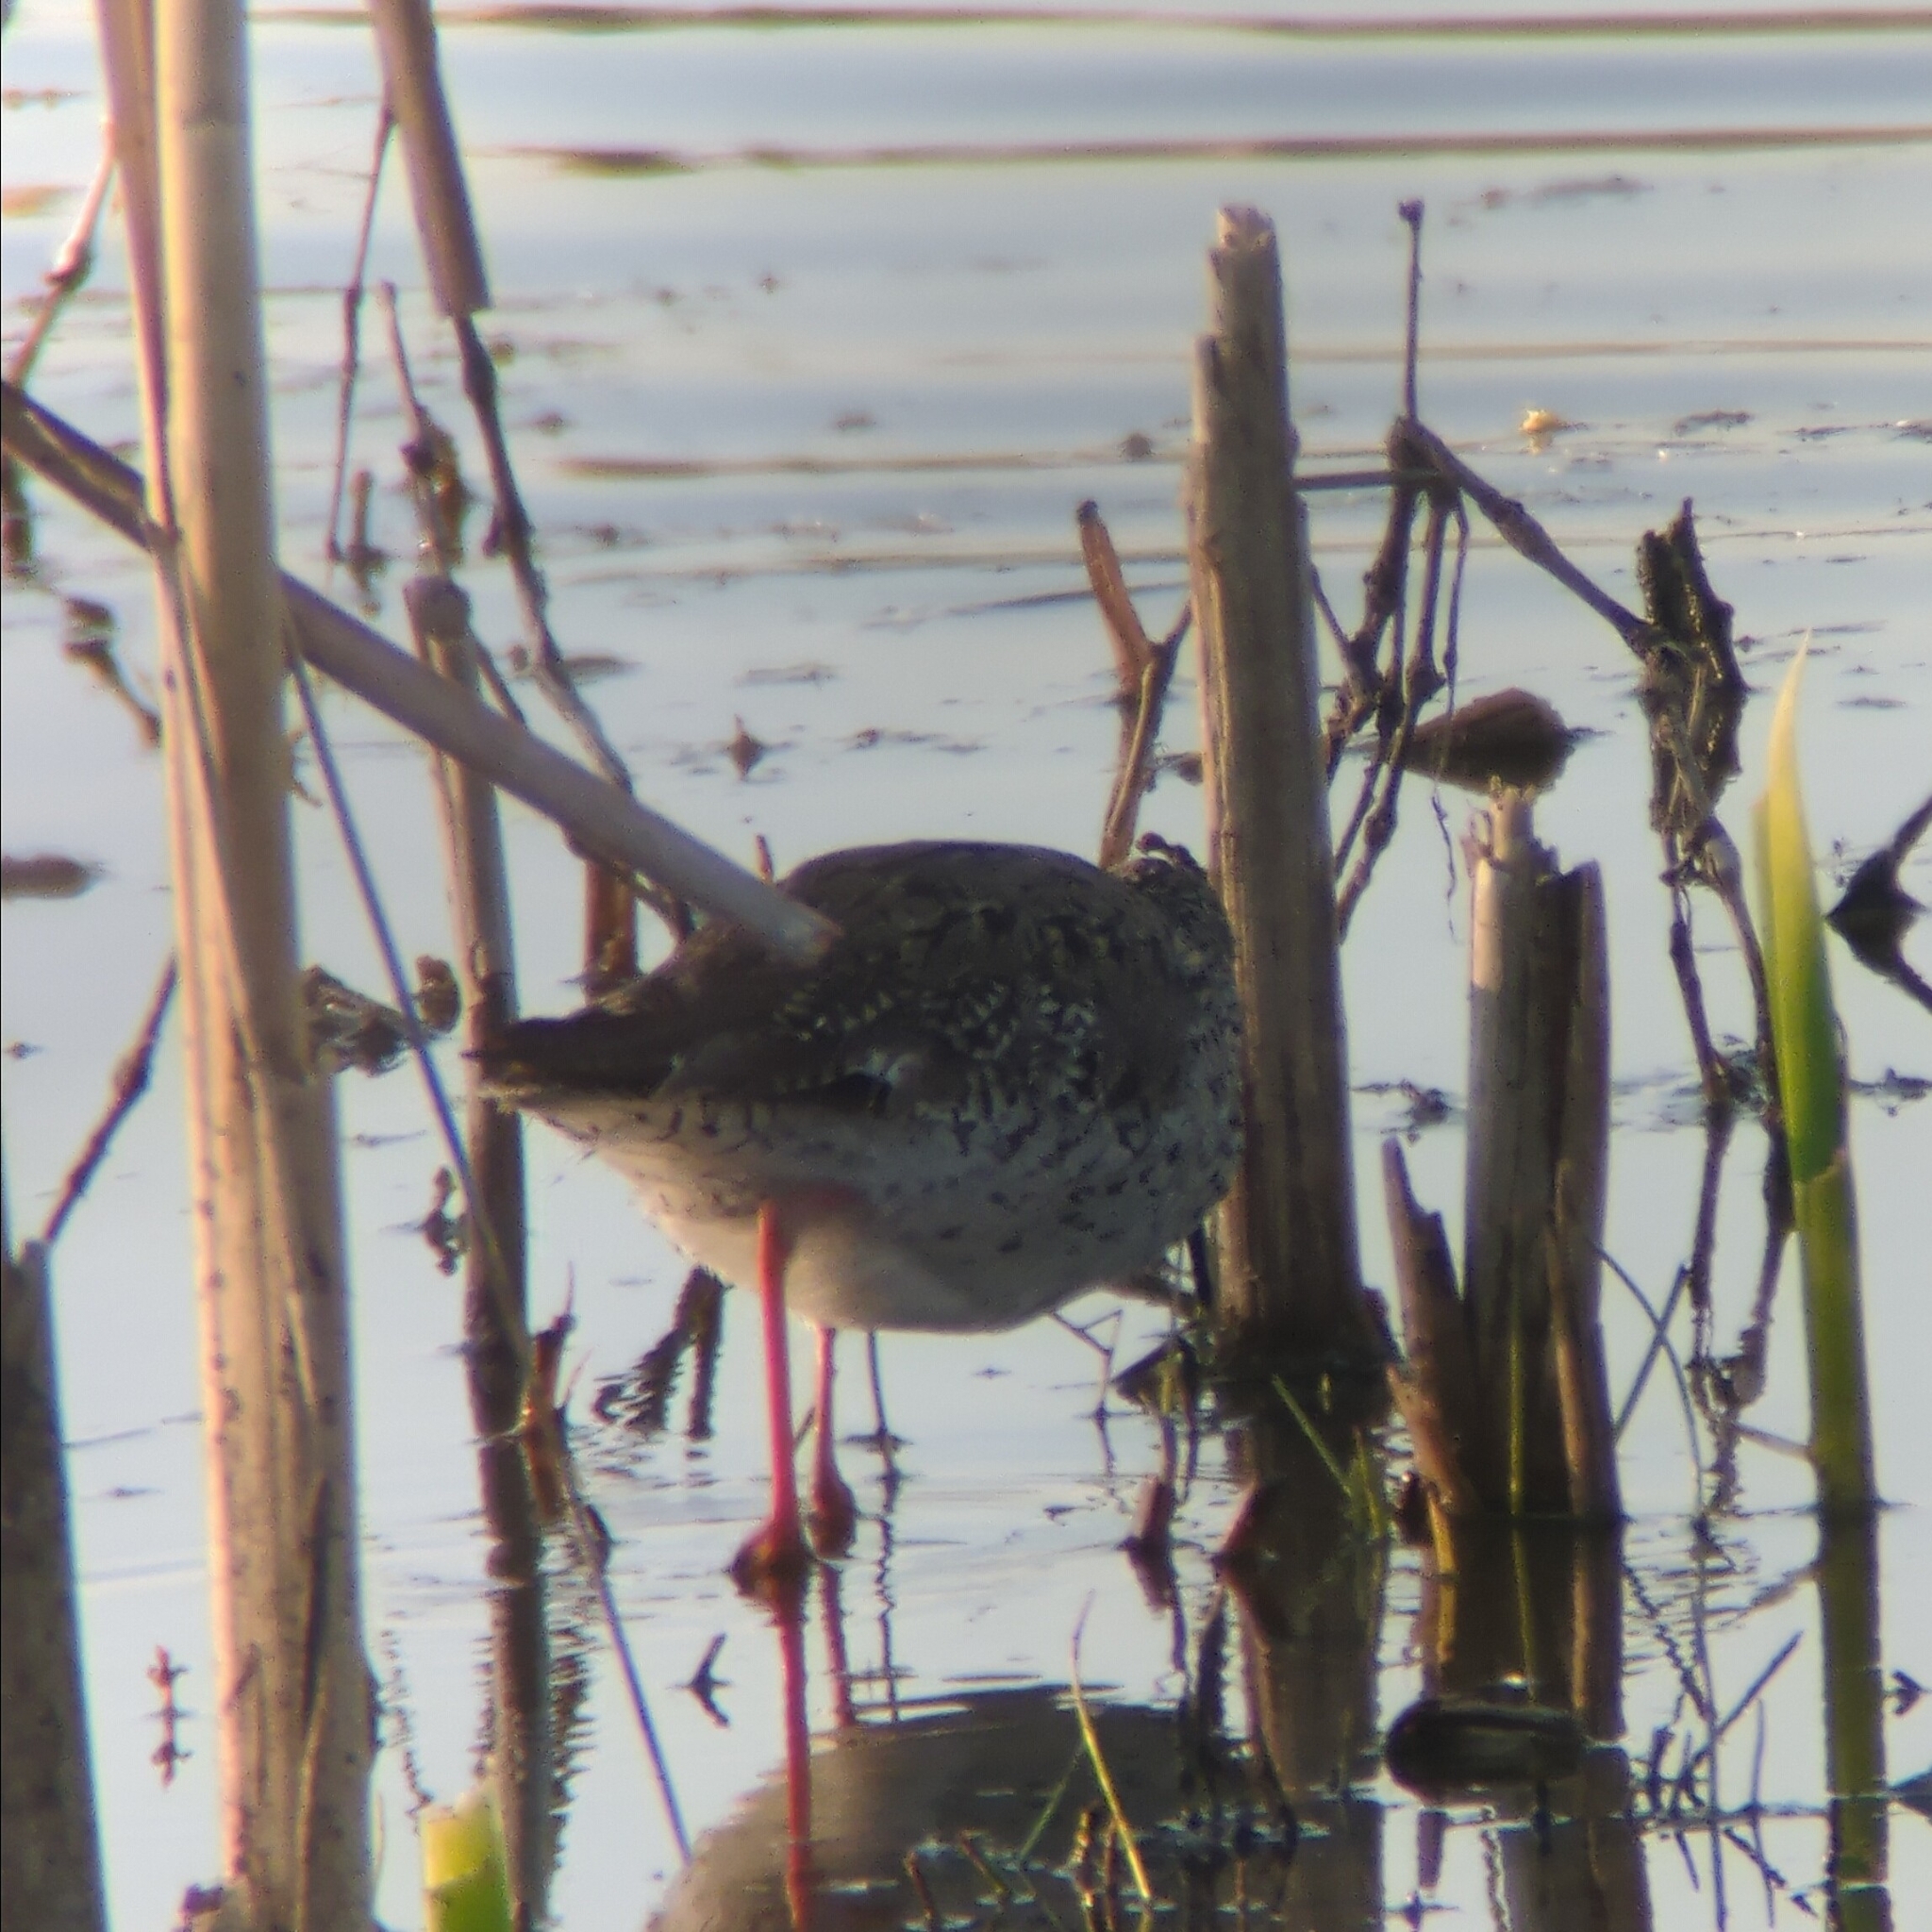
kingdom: Animalia
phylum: Chordata
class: Aves
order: Charadriiformes
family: Scolopacidae
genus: Tringa
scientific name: Tringa totanus
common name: Common redshank
